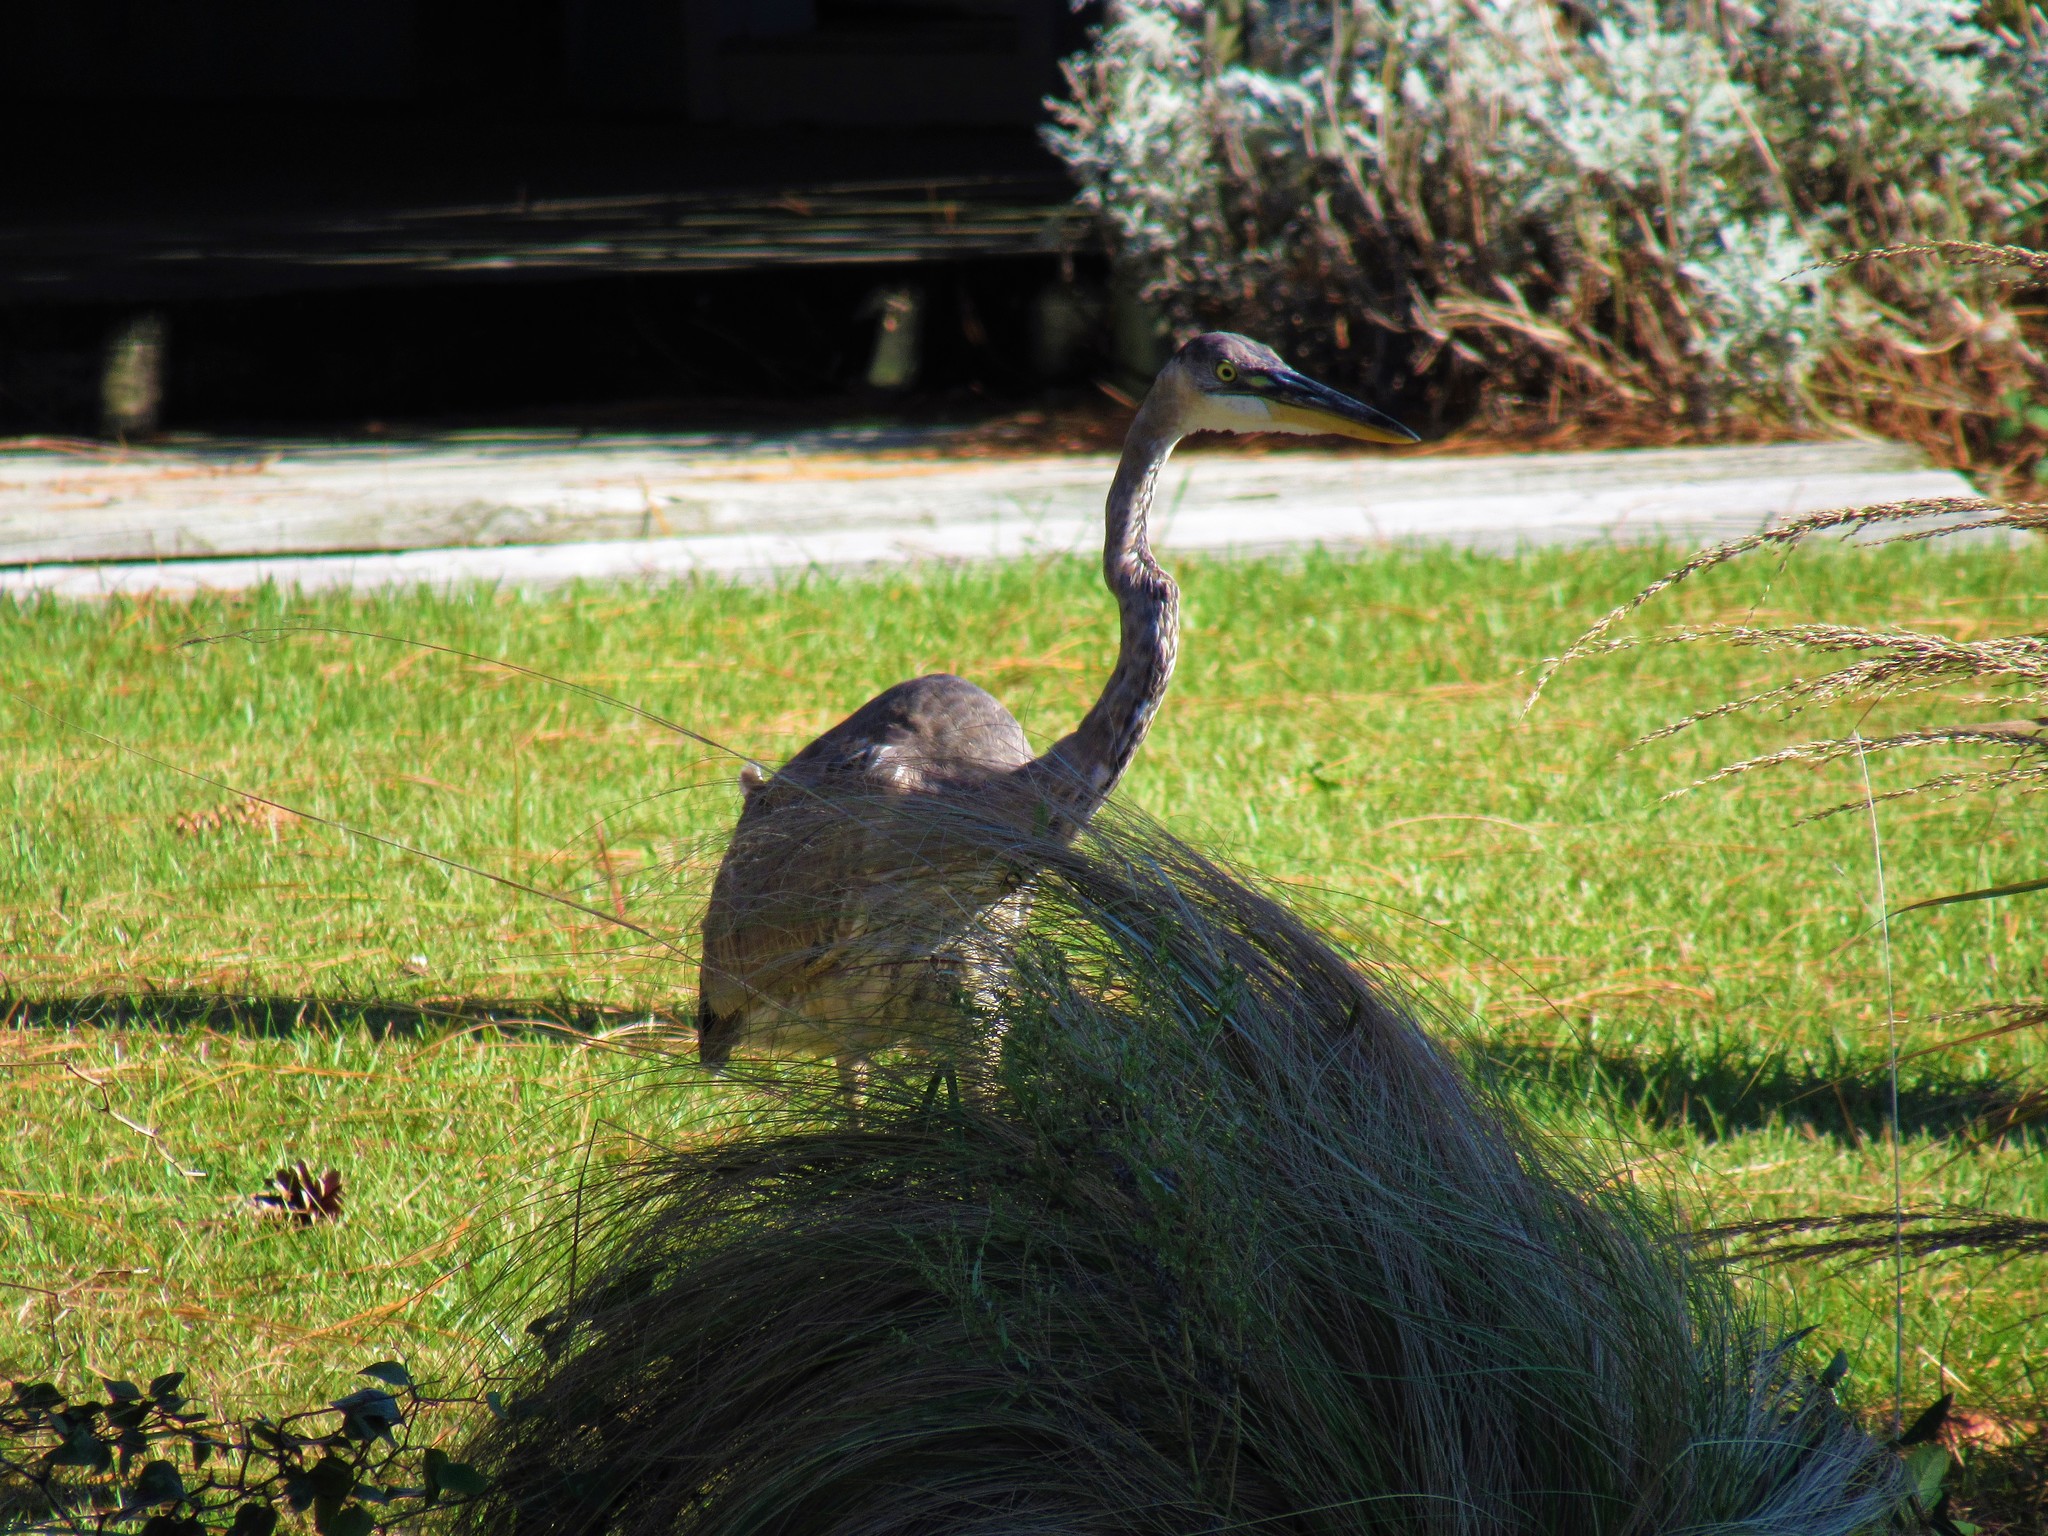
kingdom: Animalia
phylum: Chordata
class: Aves
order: Pelecaniformes
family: Ardeidae
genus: Ardea
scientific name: Ardea herodias
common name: Great blue heron
